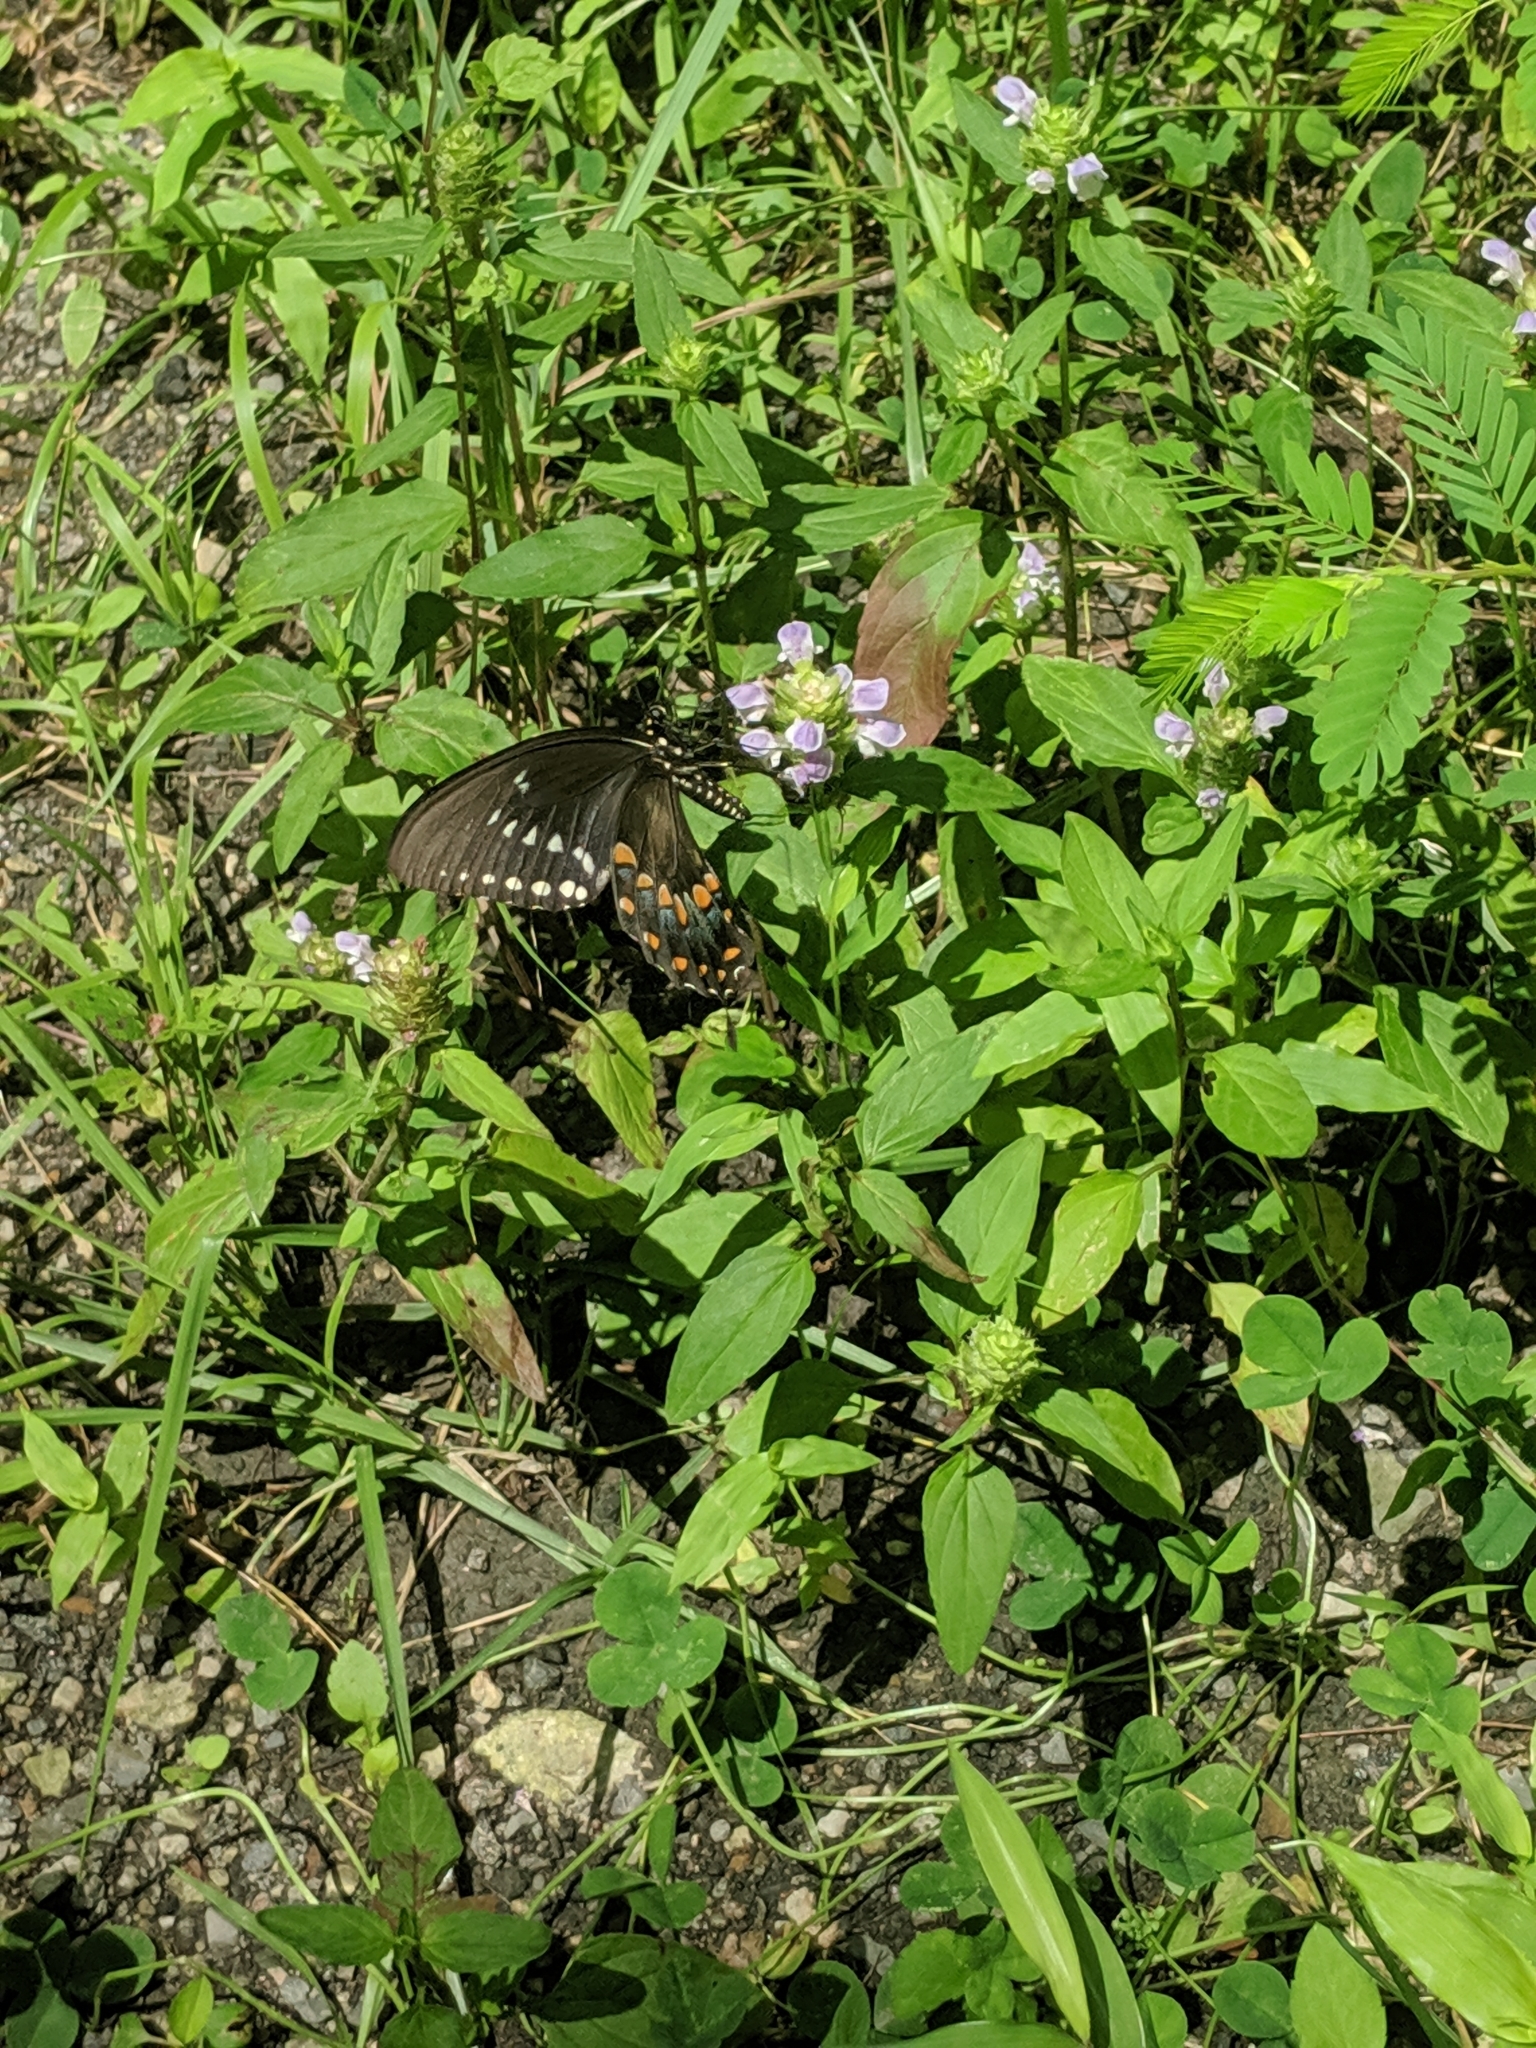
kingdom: Animalia
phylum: Arthropoda
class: Insecta
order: Lepidoptera
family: Papilionidae
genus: Papilio
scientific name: Papilio troilus
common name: Spicebush swallowtail
